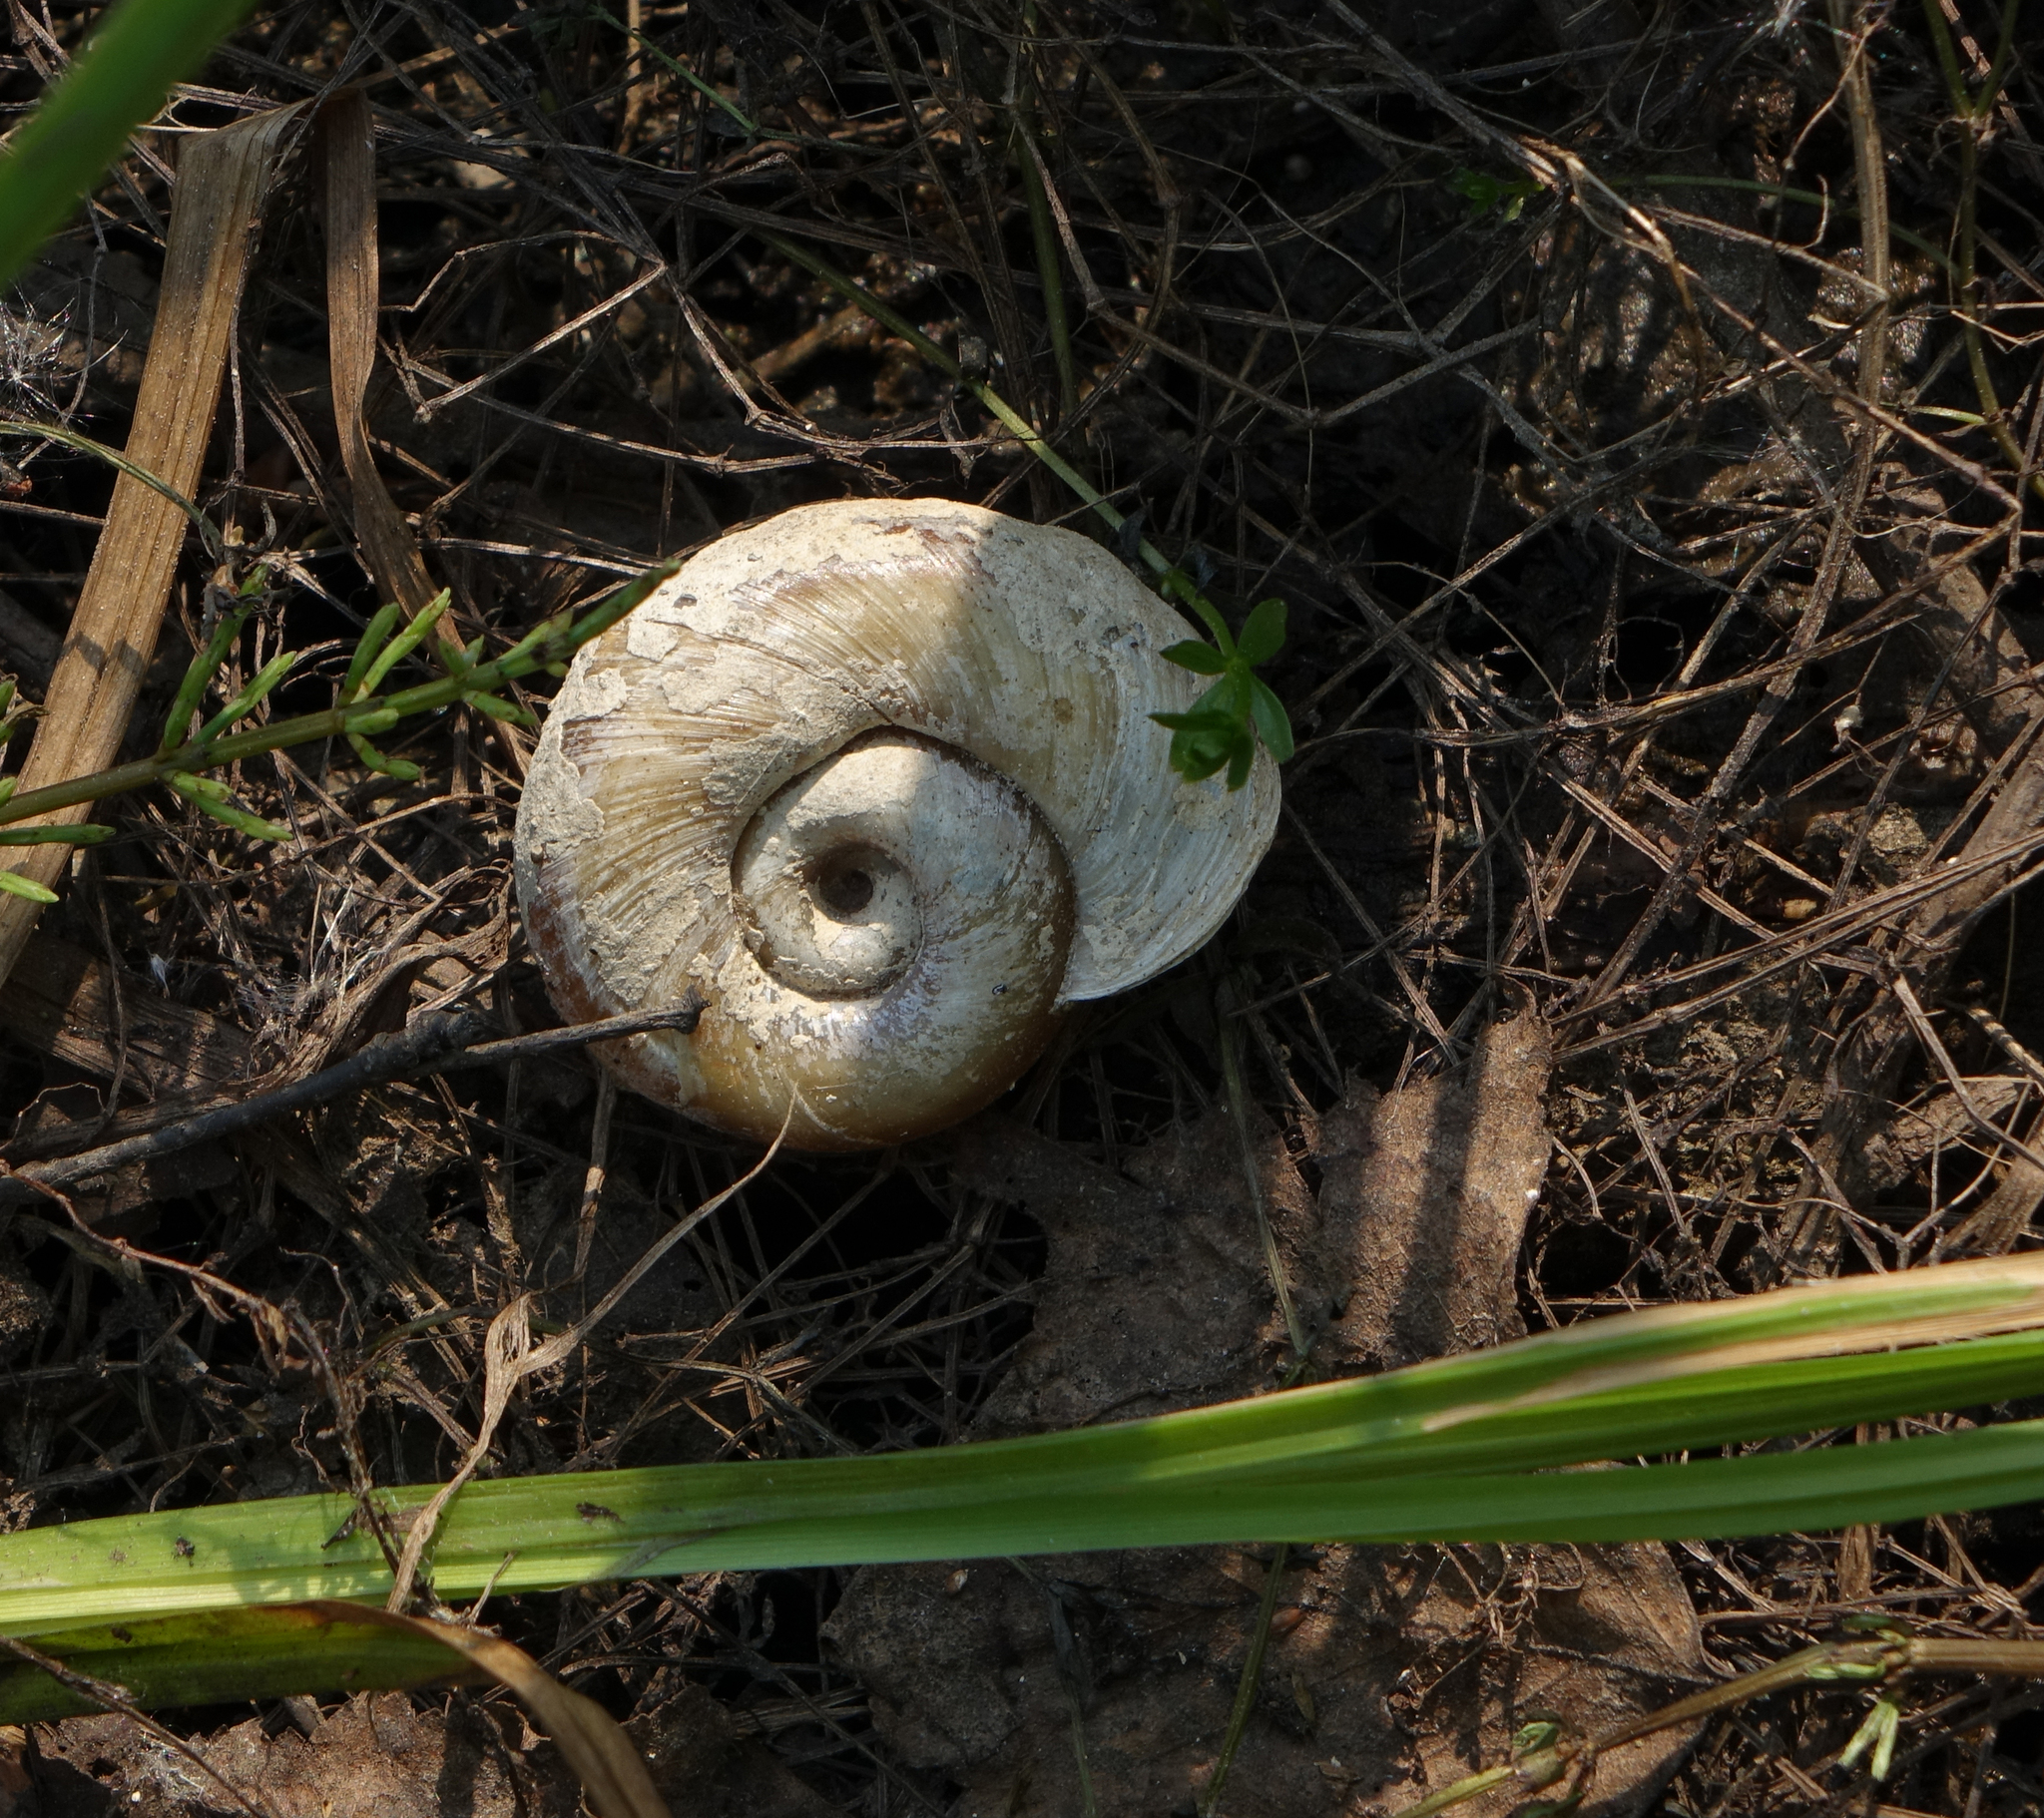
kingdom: Animalia
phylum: Mollusca
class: Gastropoda
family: Planorbidae
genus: Planorbarius
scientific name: Planorbarius corneus
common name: Great ramshorn
